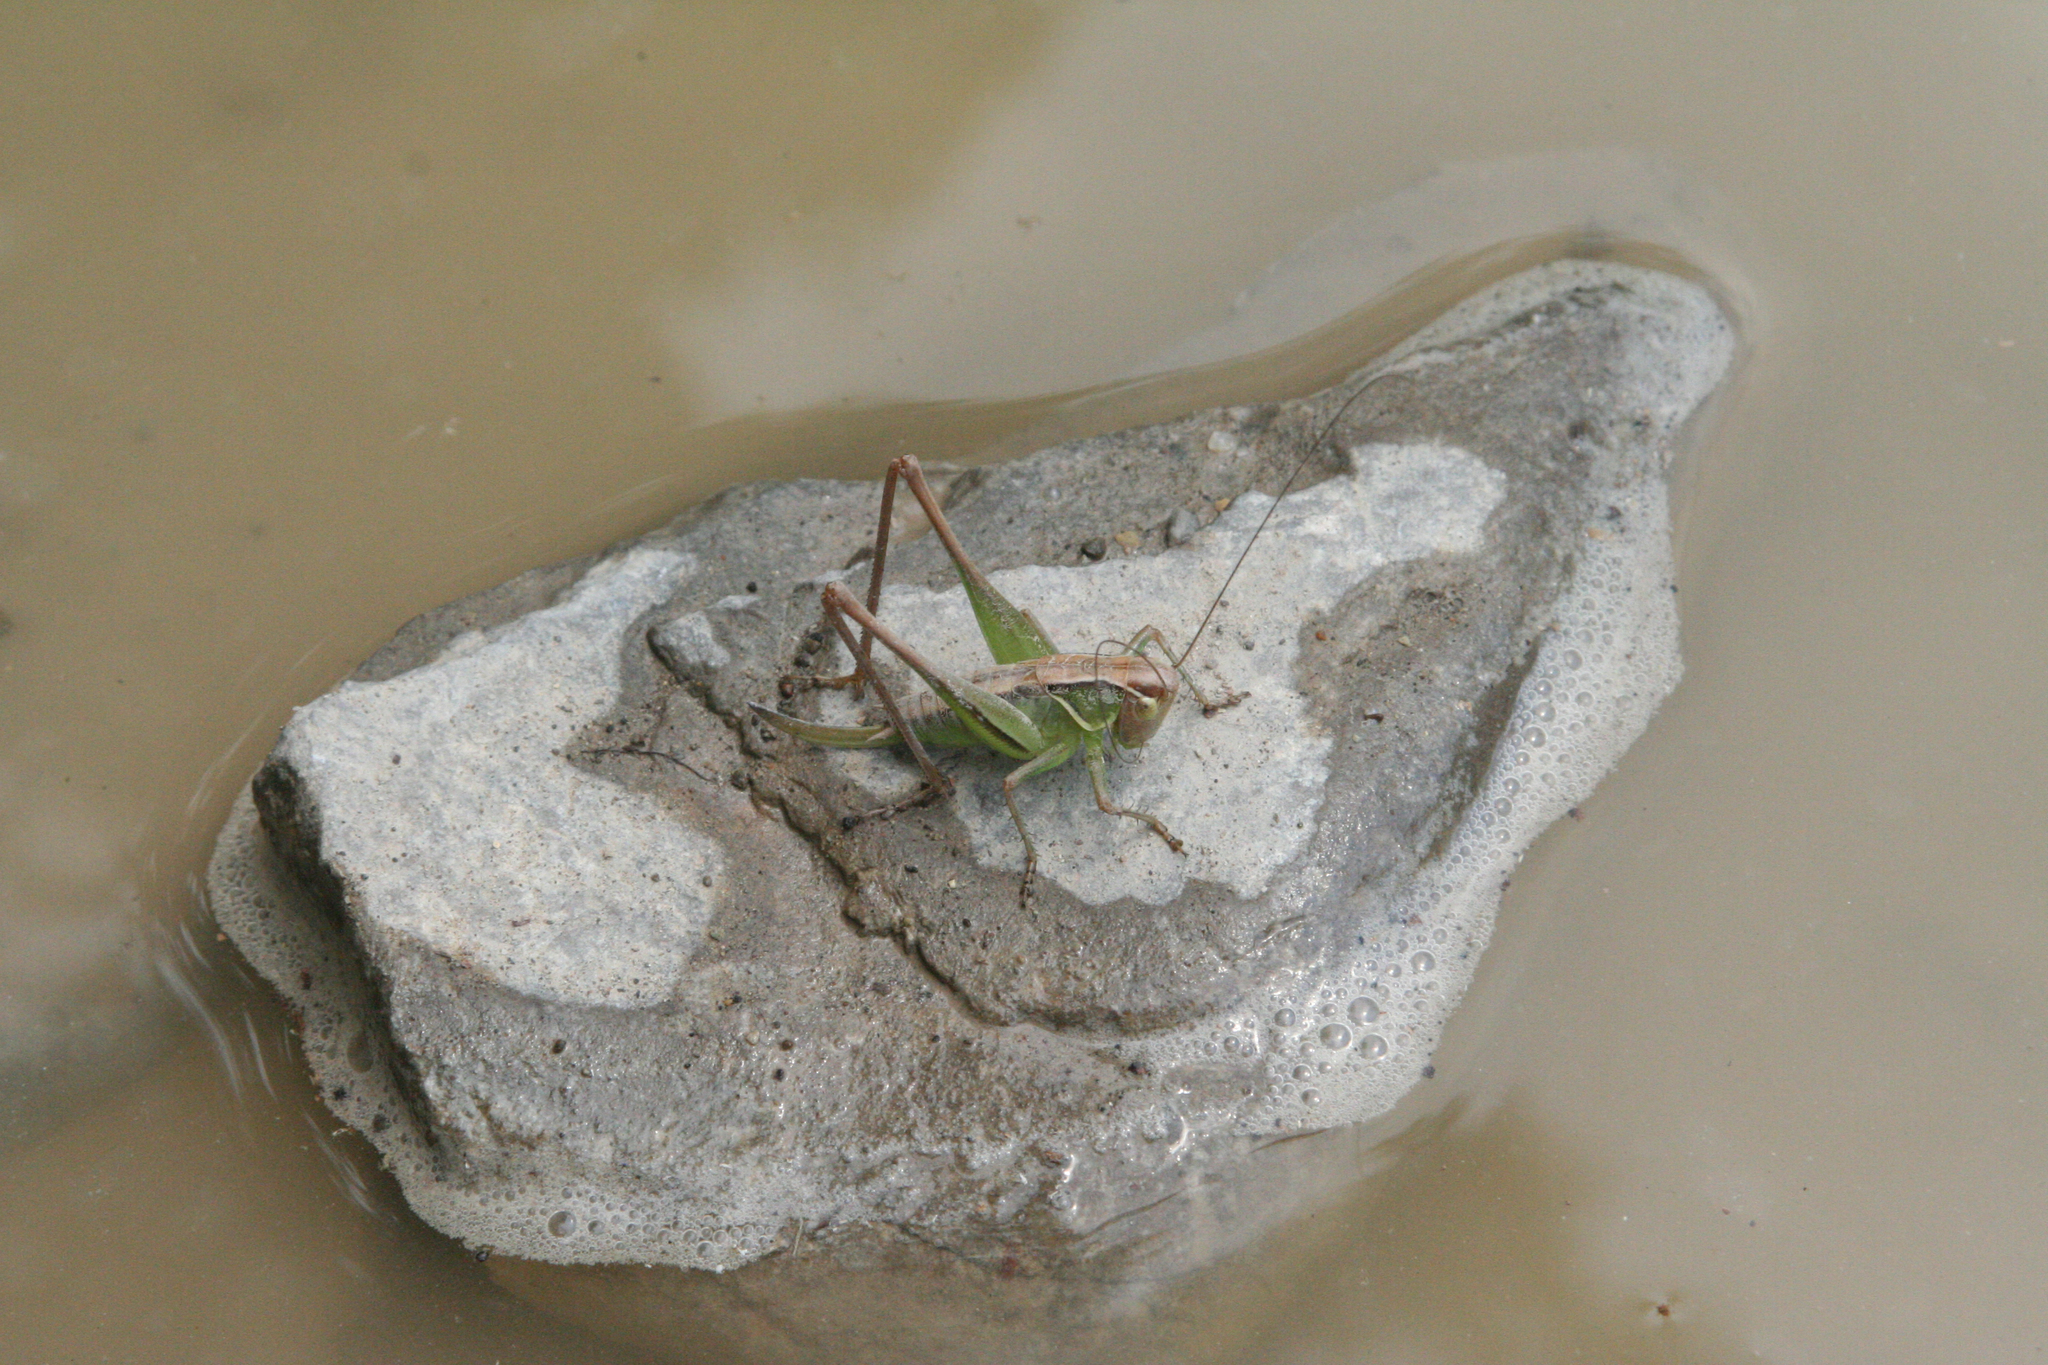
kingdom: Animalia
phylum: Arthropoda
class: Insecta
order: Orthoptera
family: Tettigoniidae
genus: Sepiana
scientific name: Sepiana sepium
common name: Sepia bush-cricket
